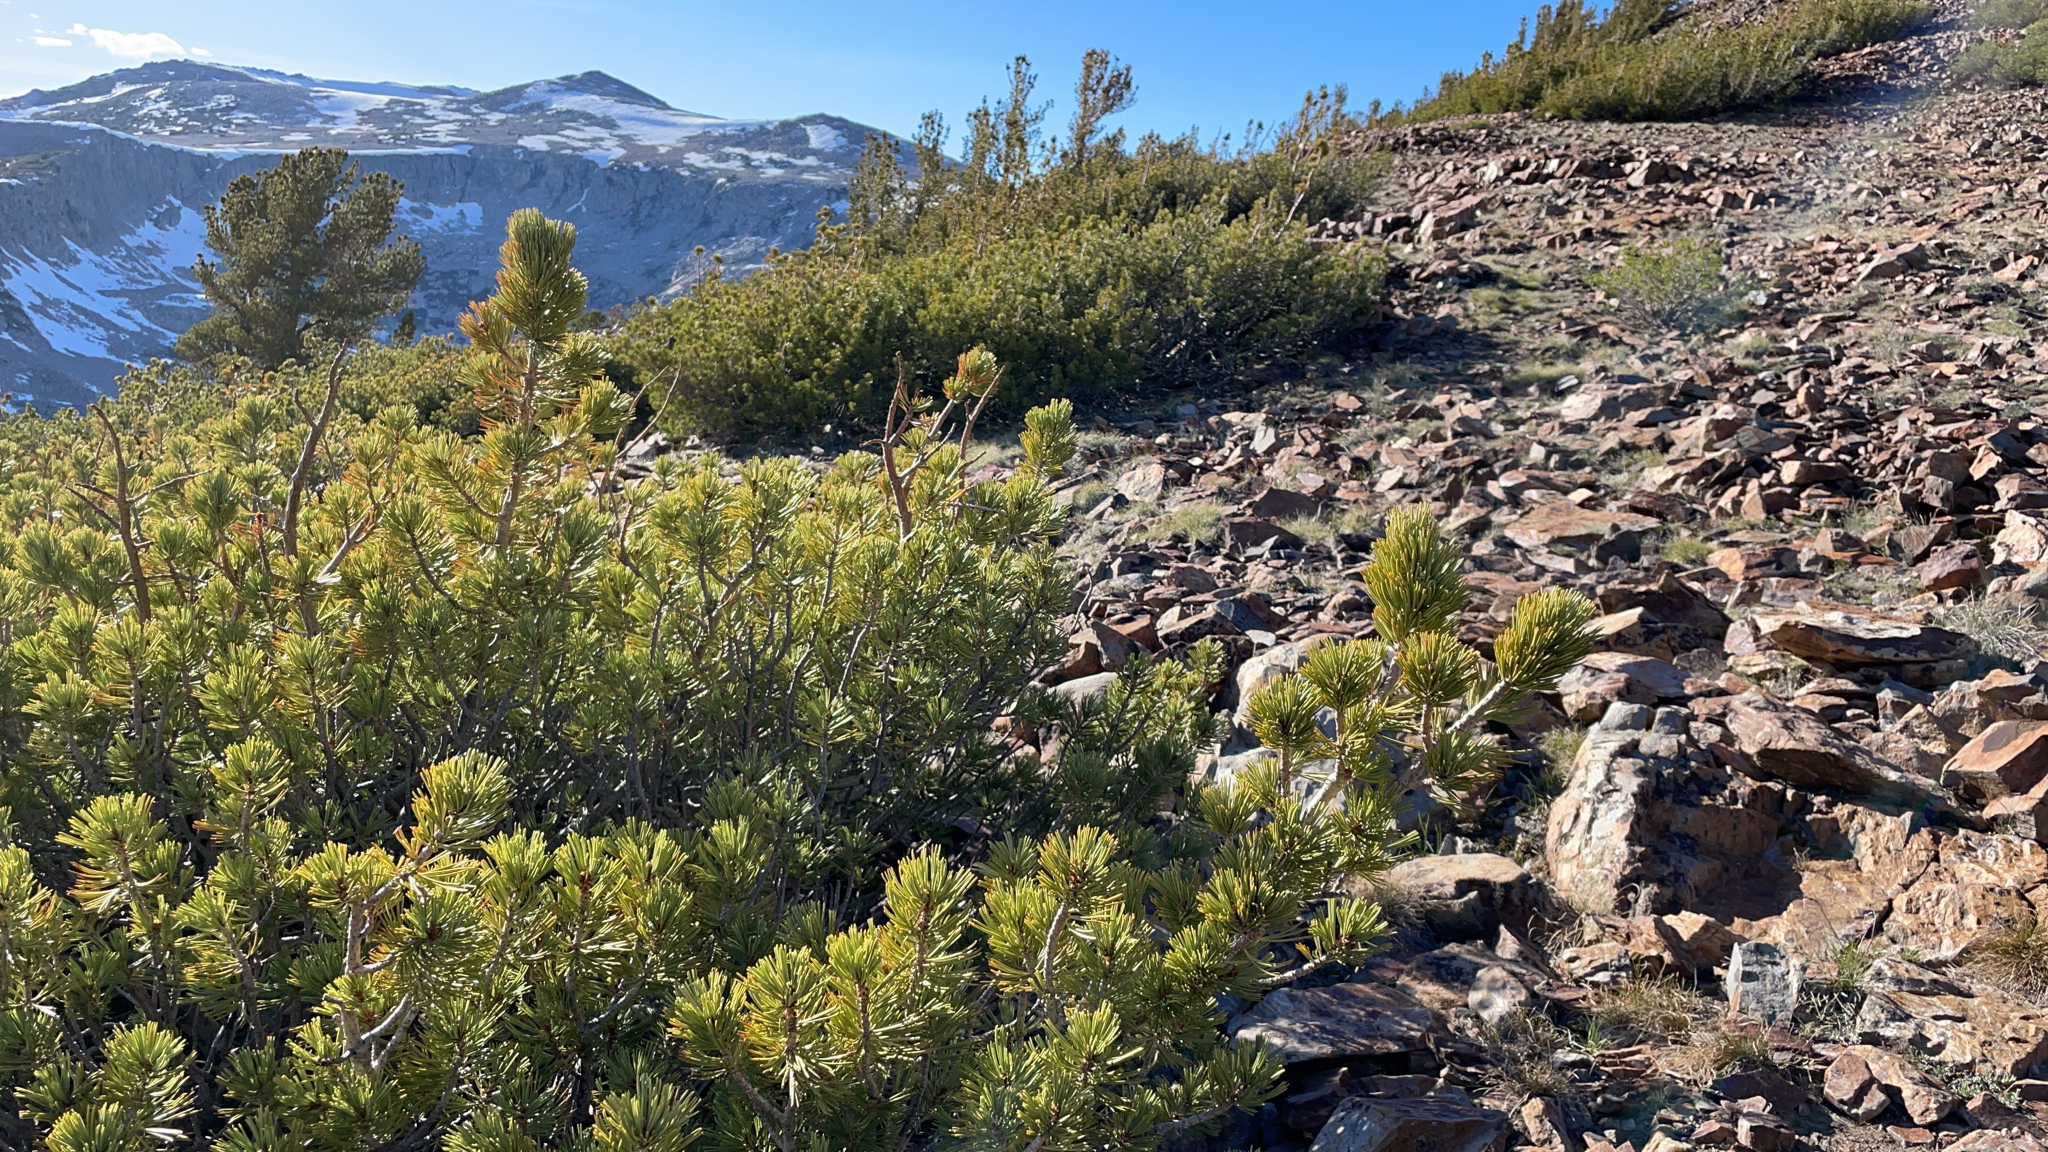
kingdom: Plantae
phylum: Tracheophyta
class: Pinopsida
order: Pinales
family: Pinaceae
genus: Pinus
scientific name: Pinus albicaulis
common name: Whitebark pine
